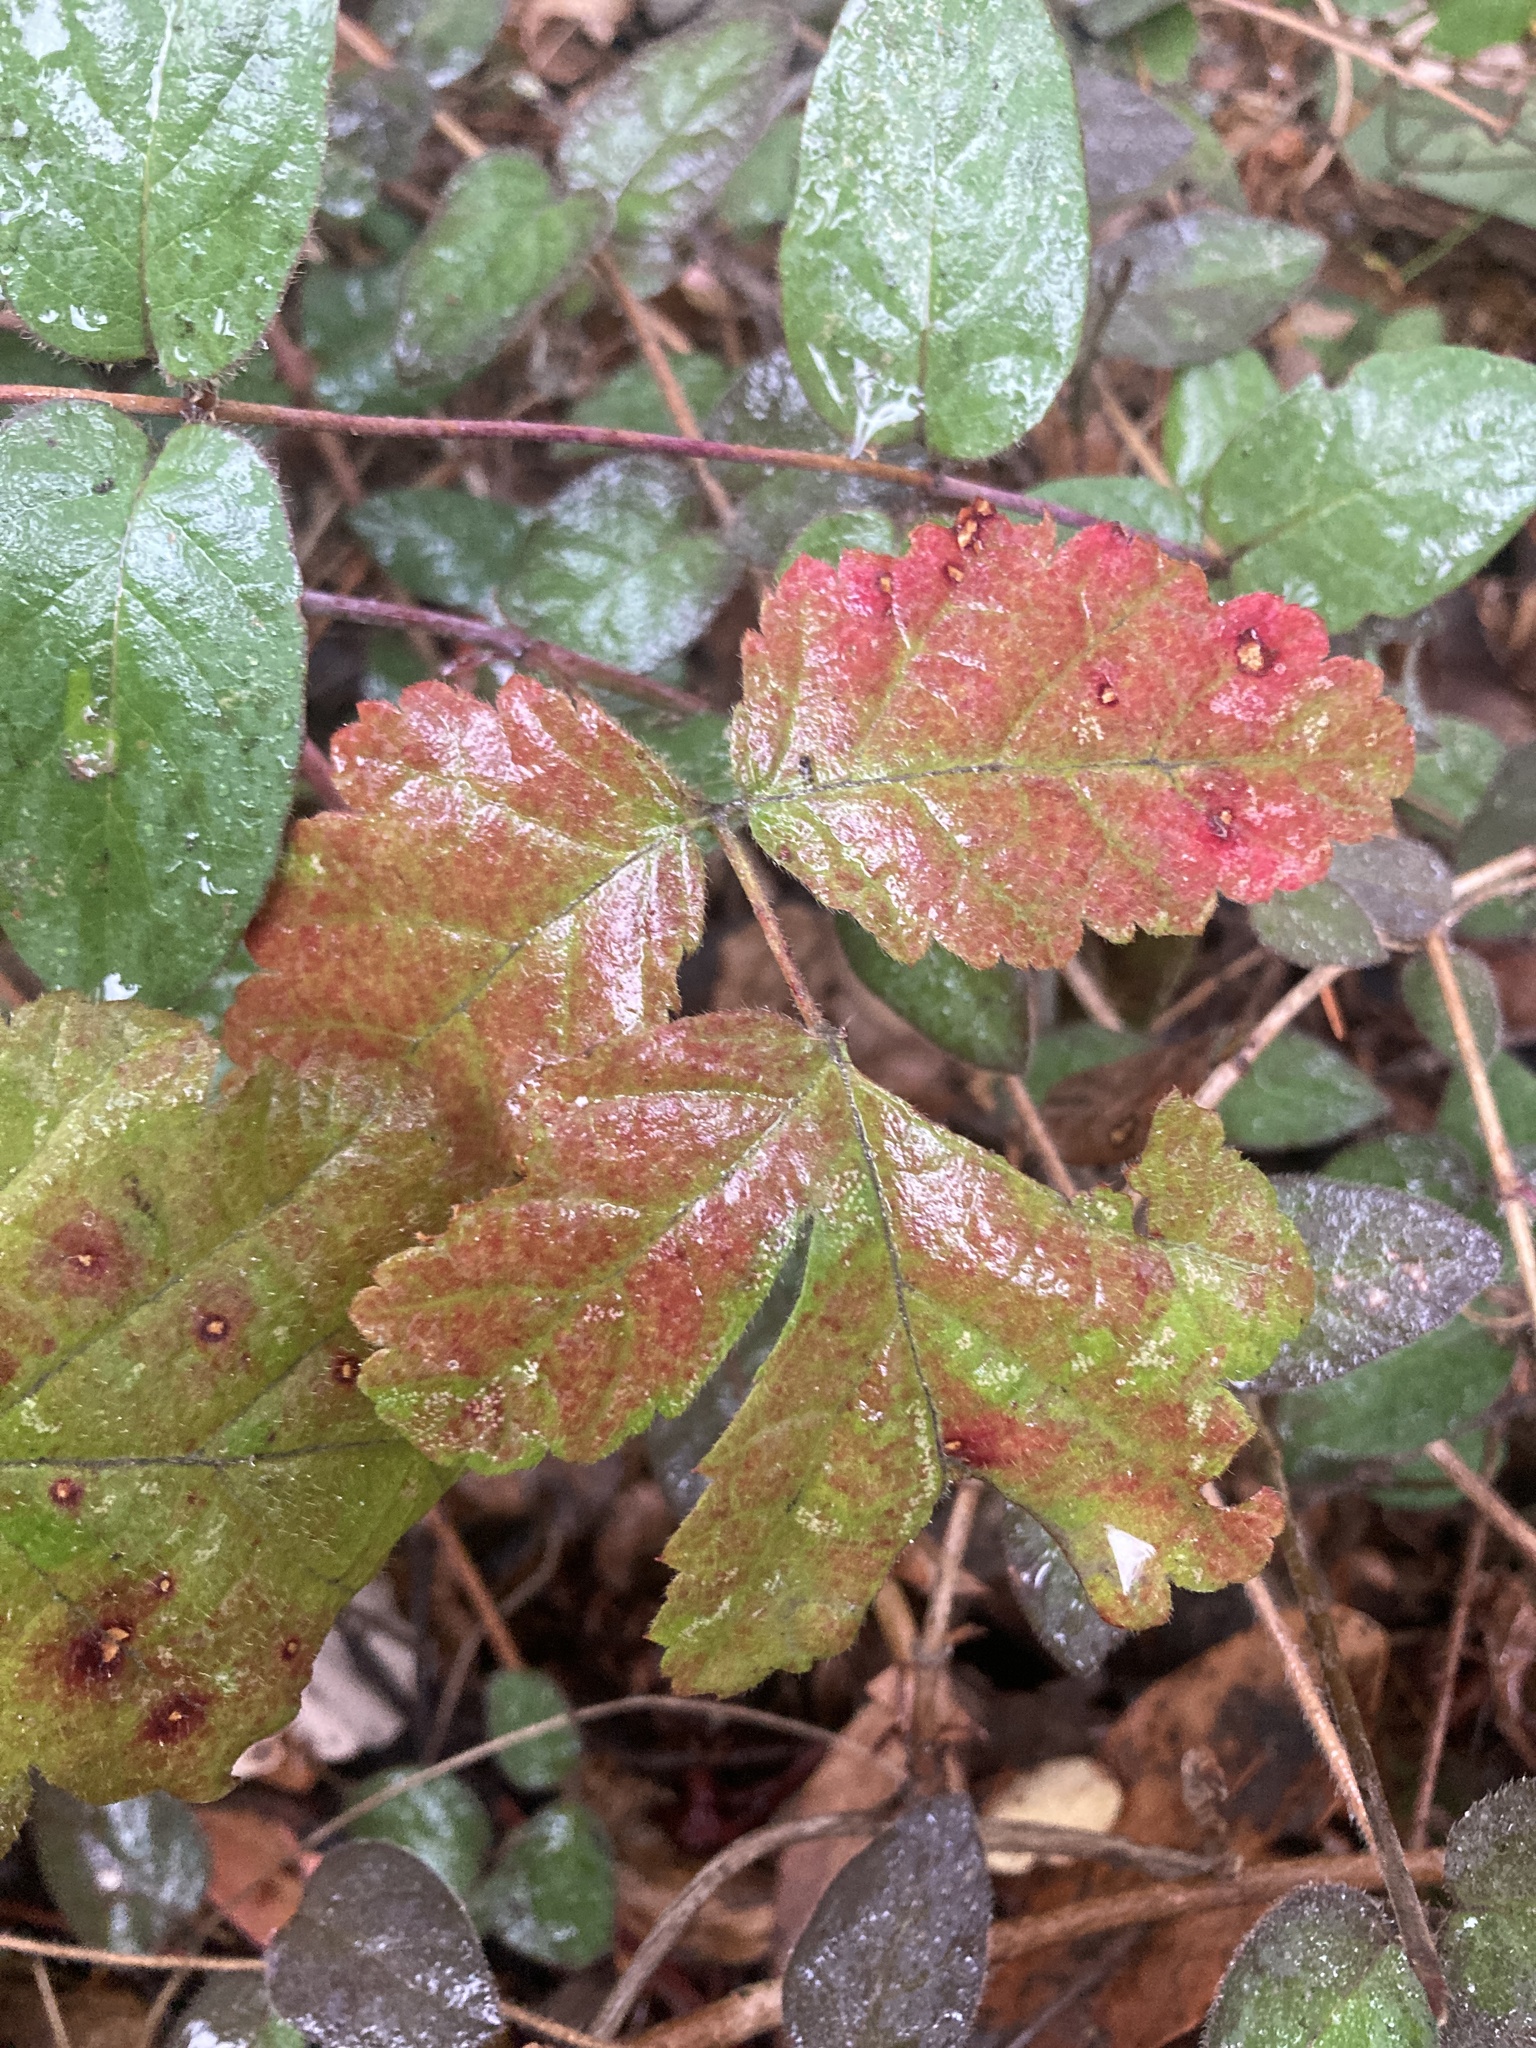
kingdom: Plantae
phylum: Tracheophyta
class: Magnoliopsida
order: Rosales
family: Rosaceae
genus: Rubus
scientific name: Rubus ursinus
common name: Pacific blackberry
